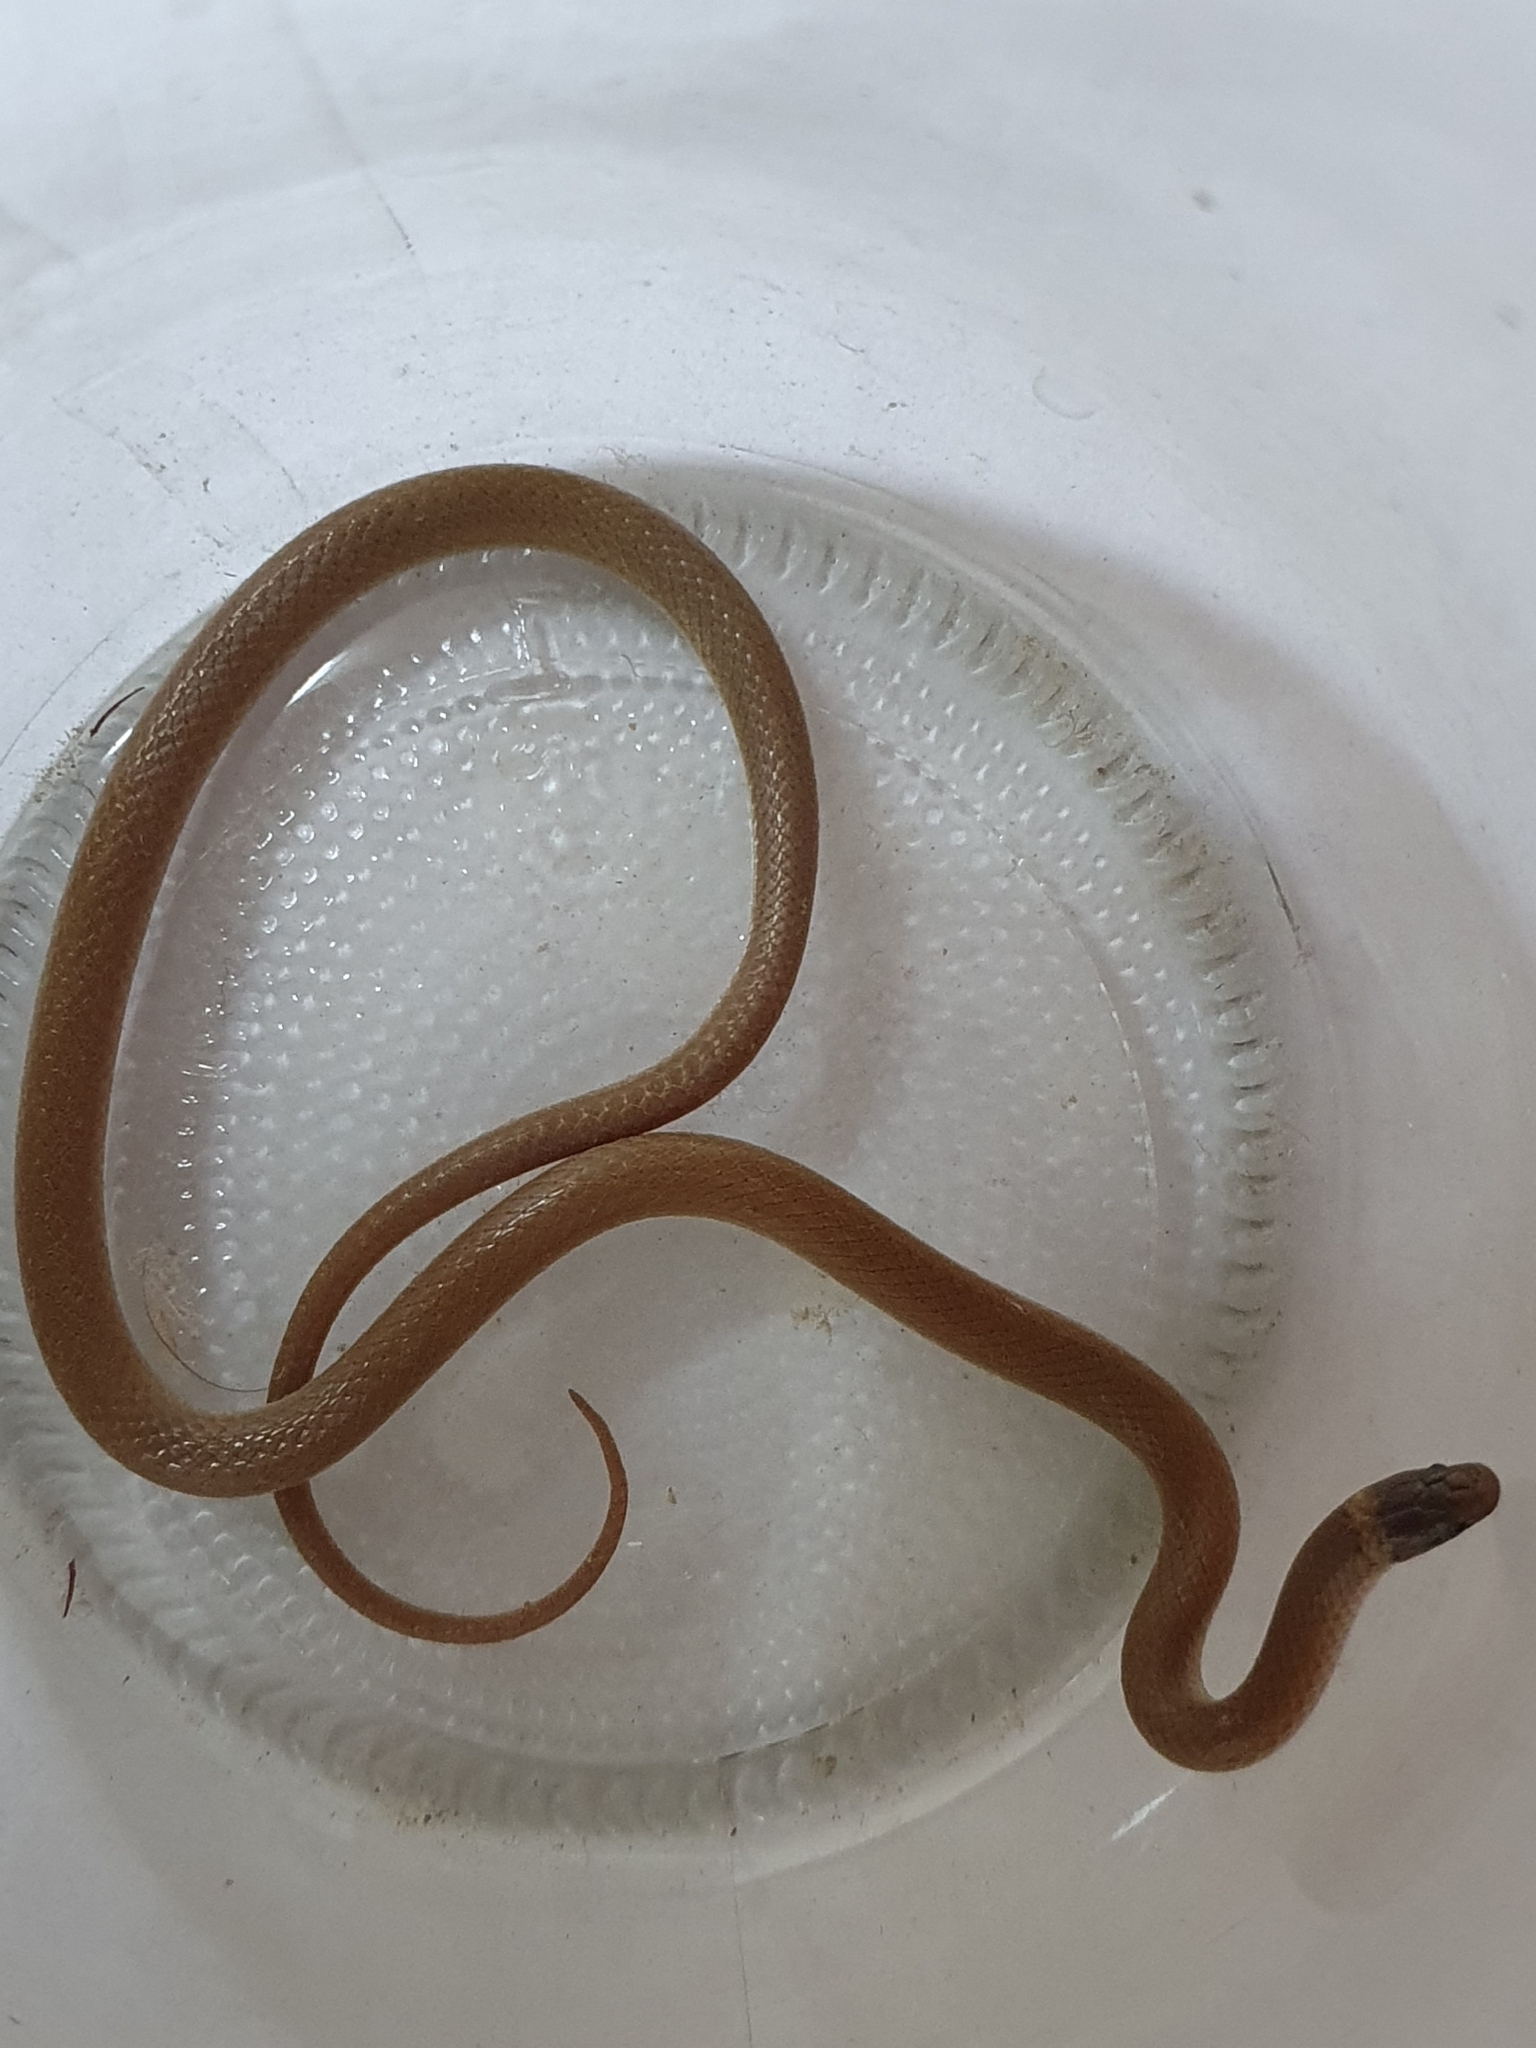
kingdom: Animalia
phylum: Chordata
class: Squamata
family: Colubridae
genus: Tantilla
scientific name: Tantilla wilcoxi
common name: Chihuahuan blackhead snake
